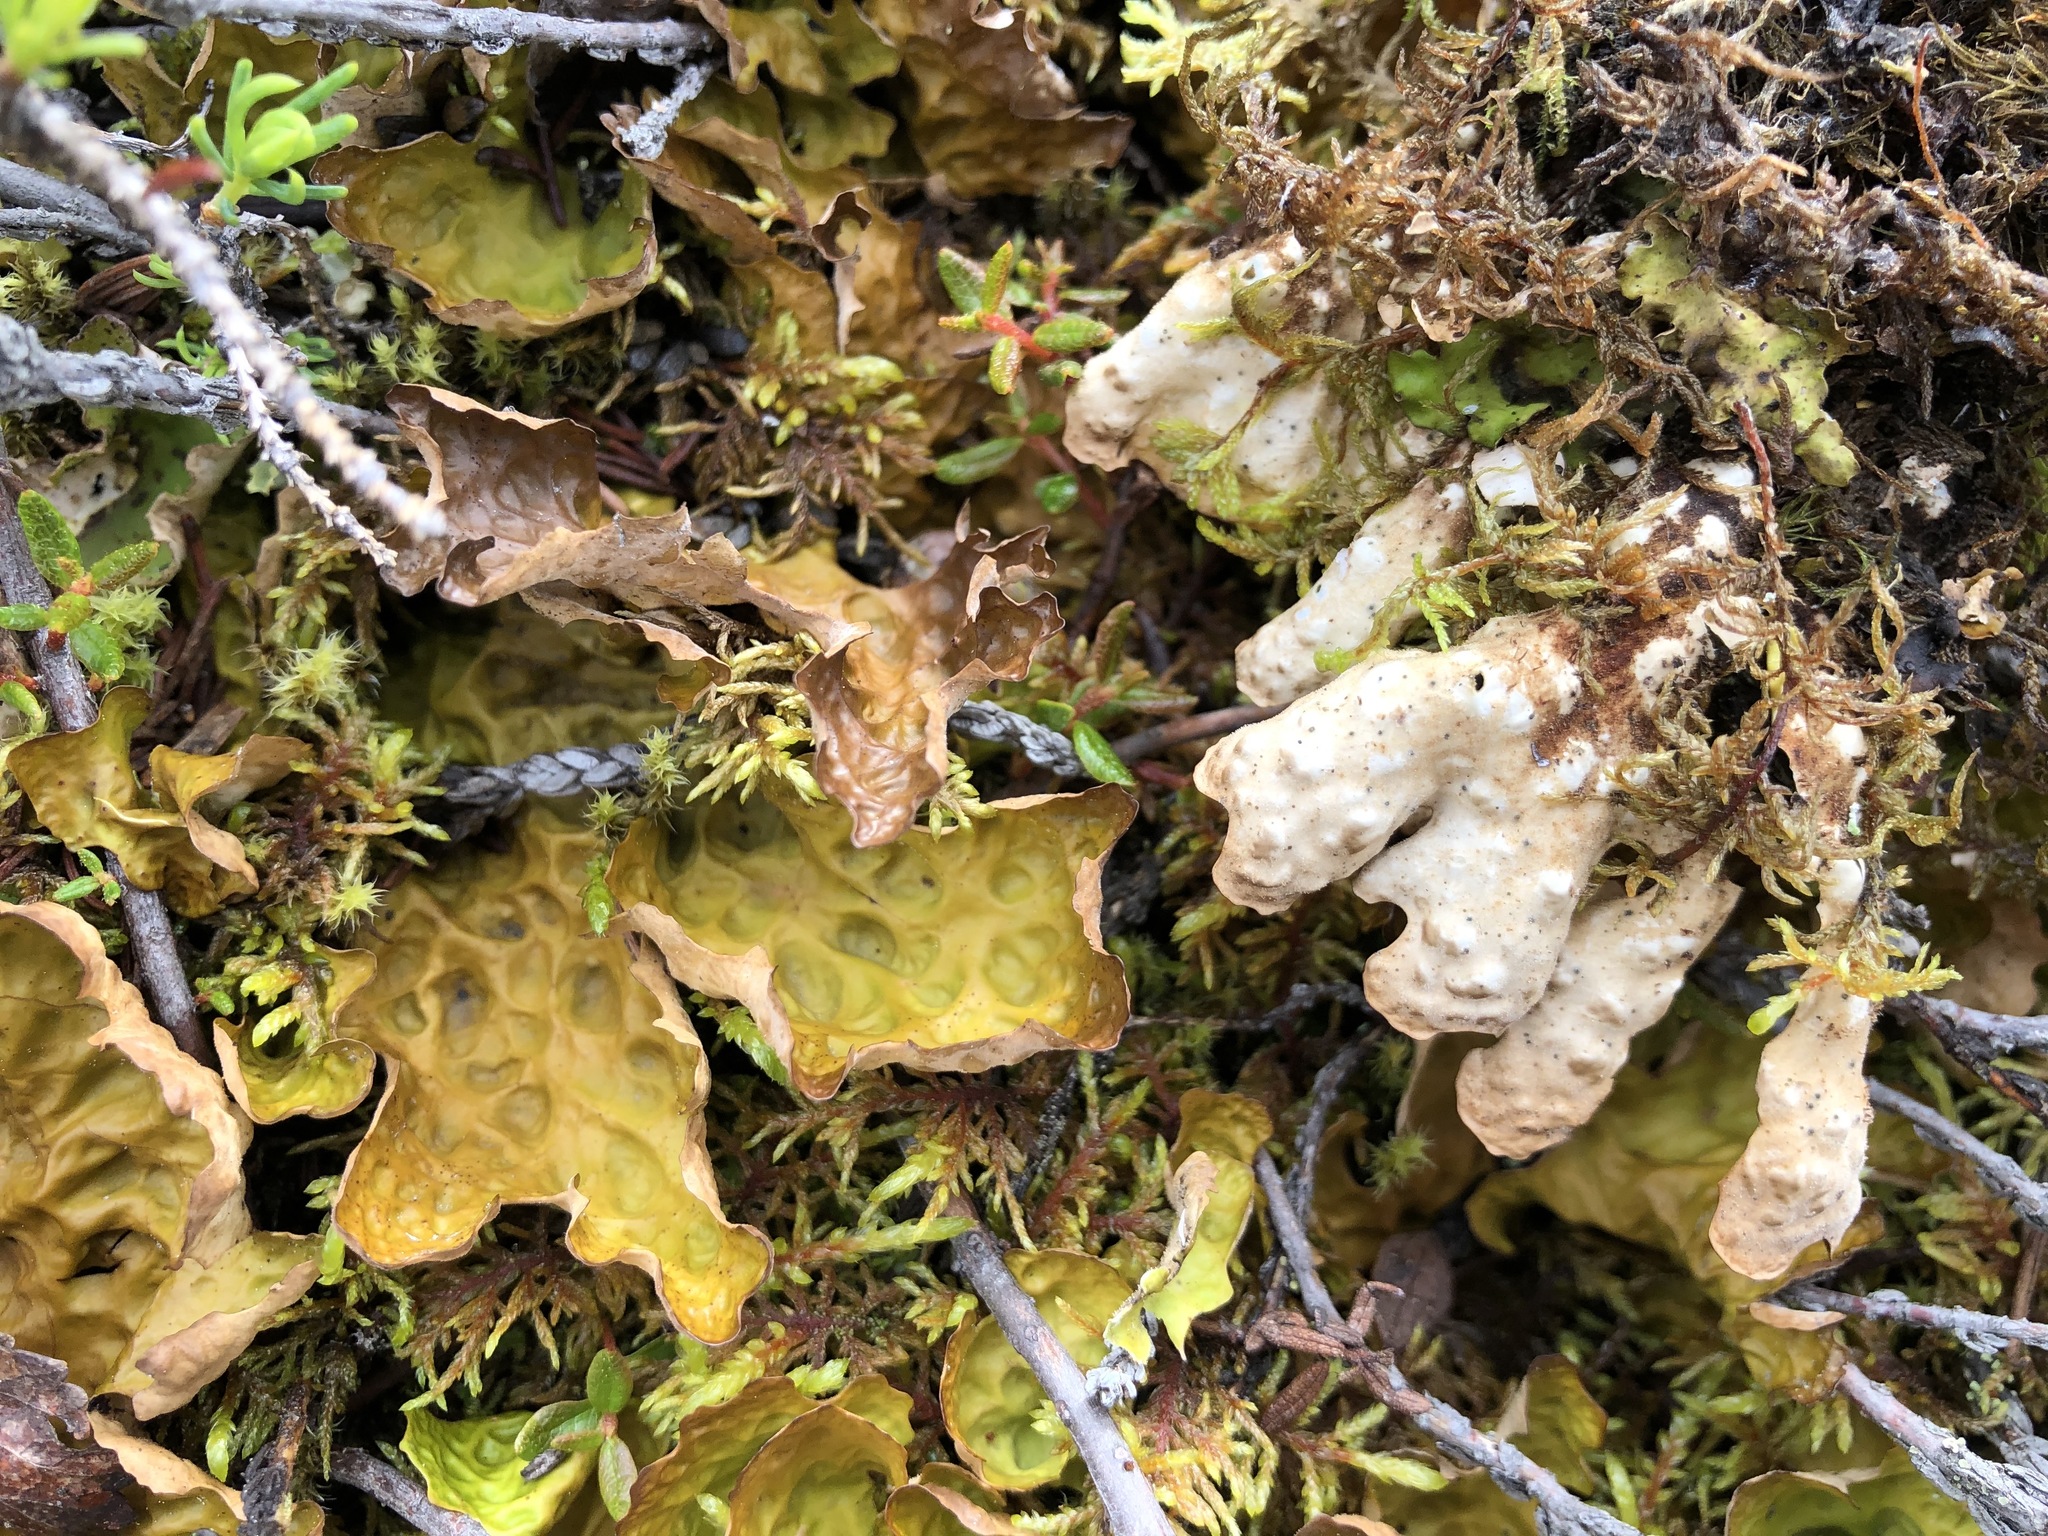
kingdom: Fungi
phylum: Ascomycota
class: Lecanoromycetes
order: Peltigerales
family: Lobariaceae
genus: Lobaria
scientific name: Lobaria linita
